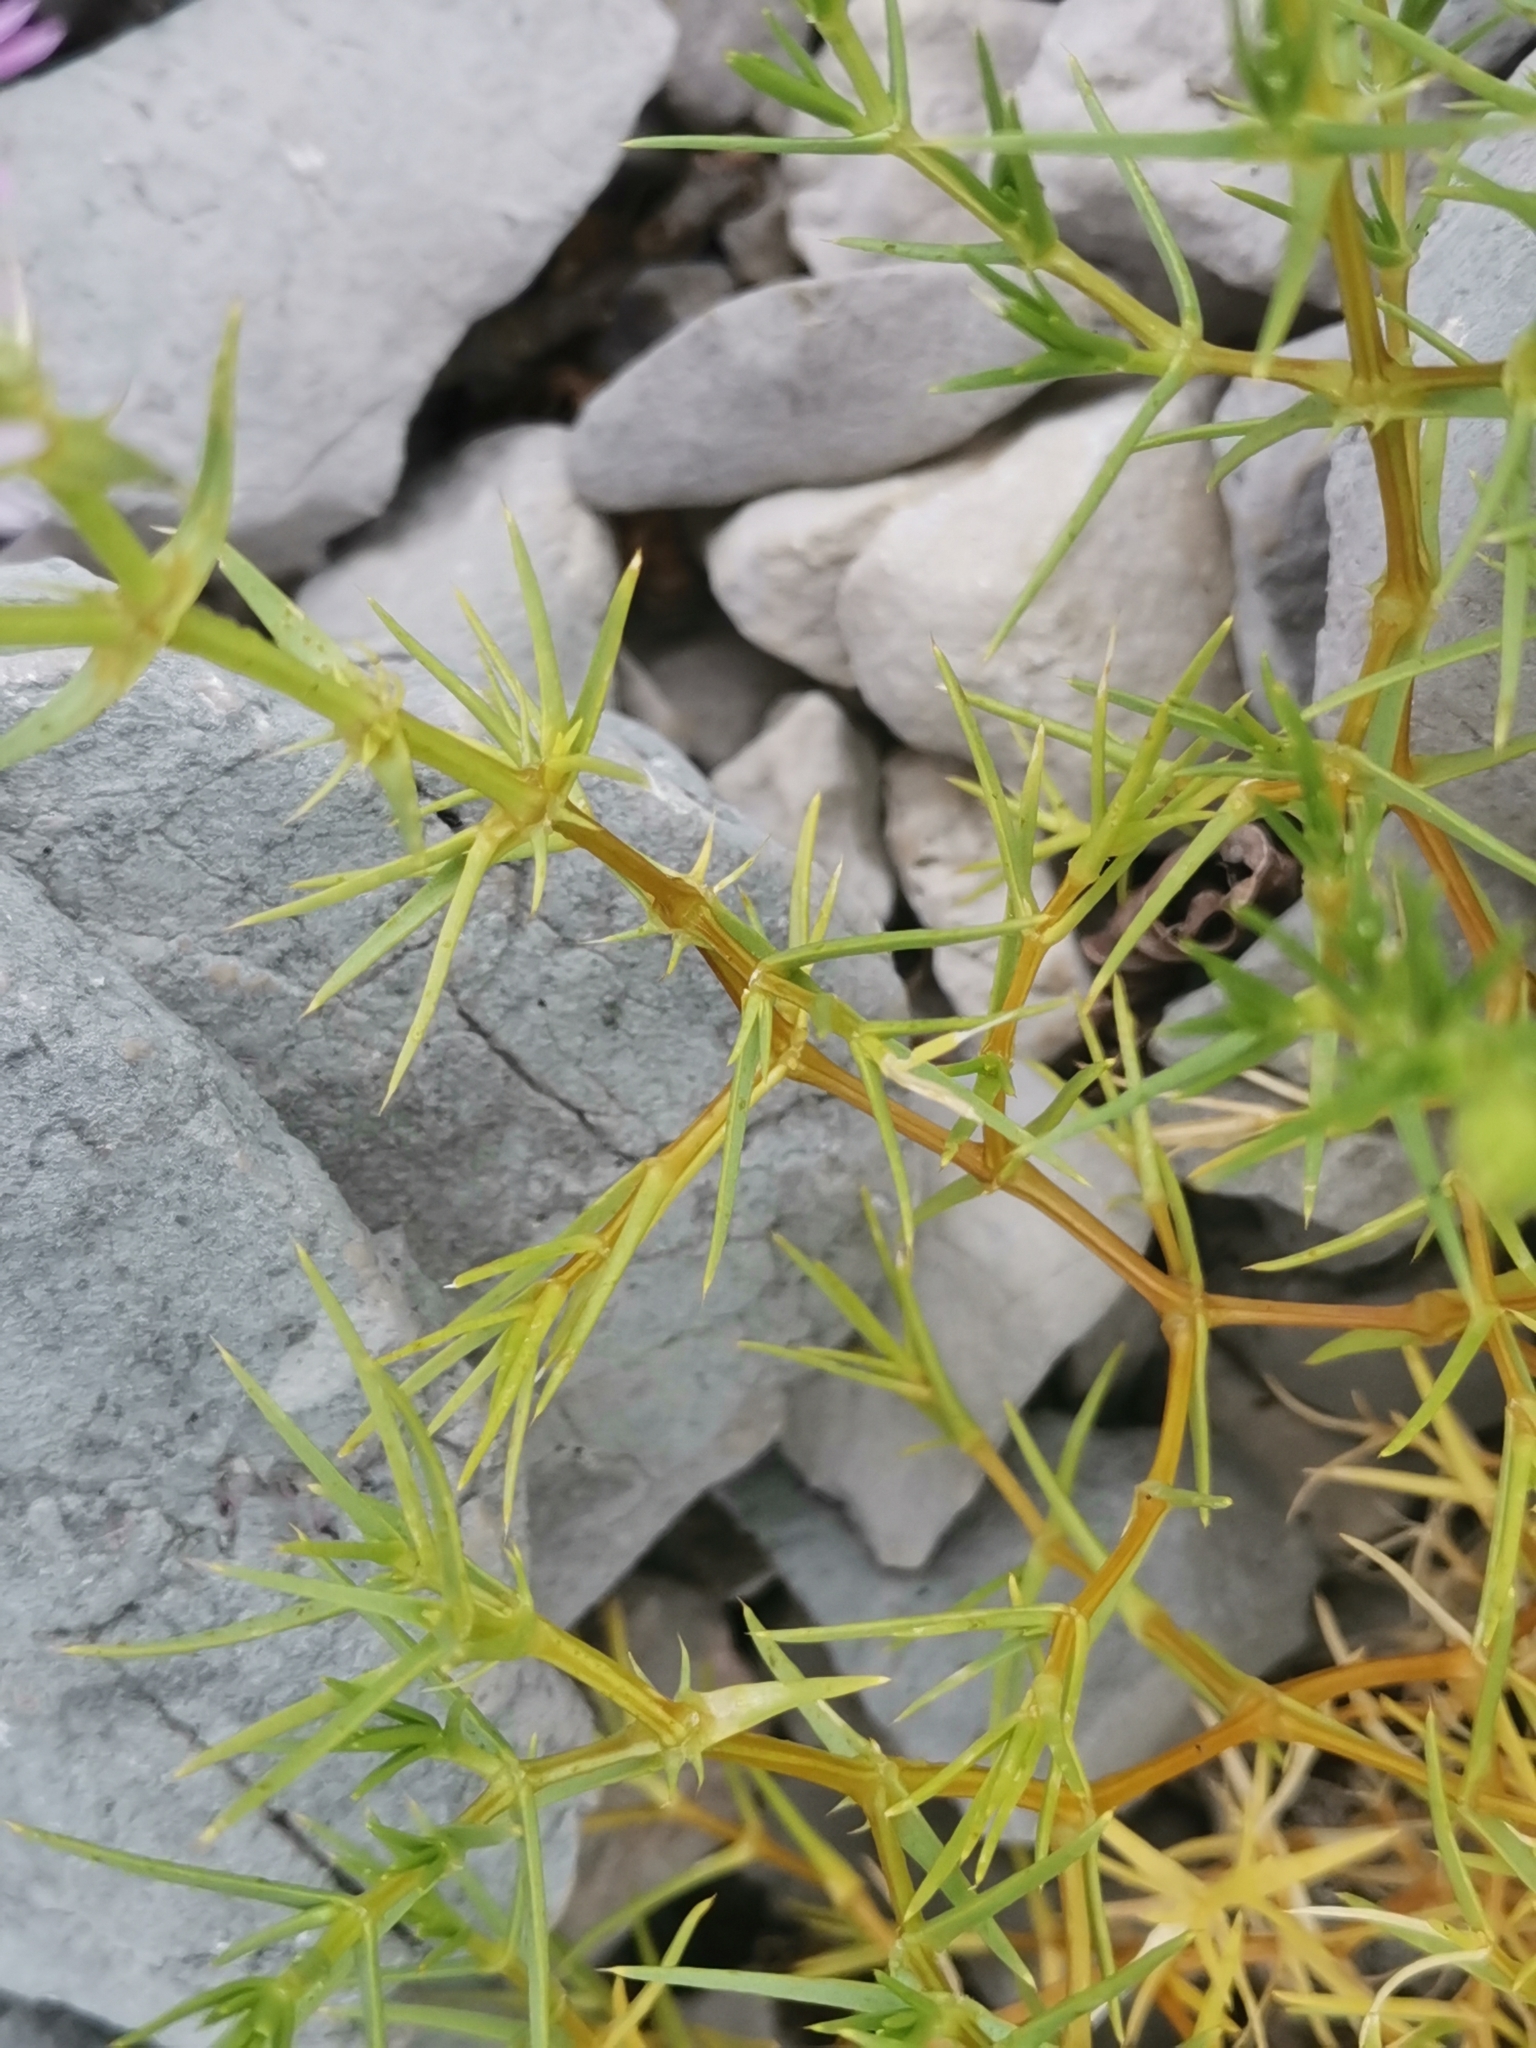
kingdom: Plantae
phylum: Tracheophyta
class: Magnoliopsida
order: Caryophyllales
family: Caryophyllaceae
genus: Drypis
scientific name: Drypis spinosa
